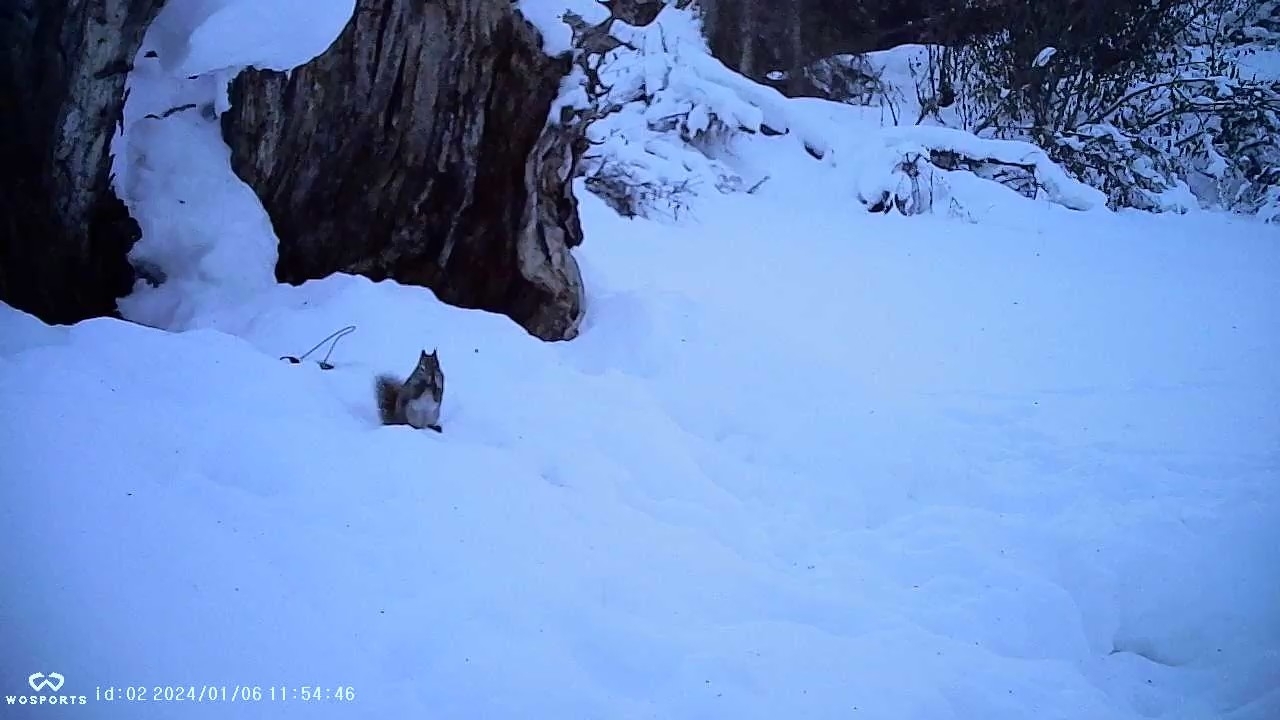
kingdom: Animalia
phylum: Chordata
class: Mammalia
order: Rodentia
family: Sciuridae
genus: Tamiasciurus
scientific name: Tamiasciurus hudsonicus
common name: Red squirrel
